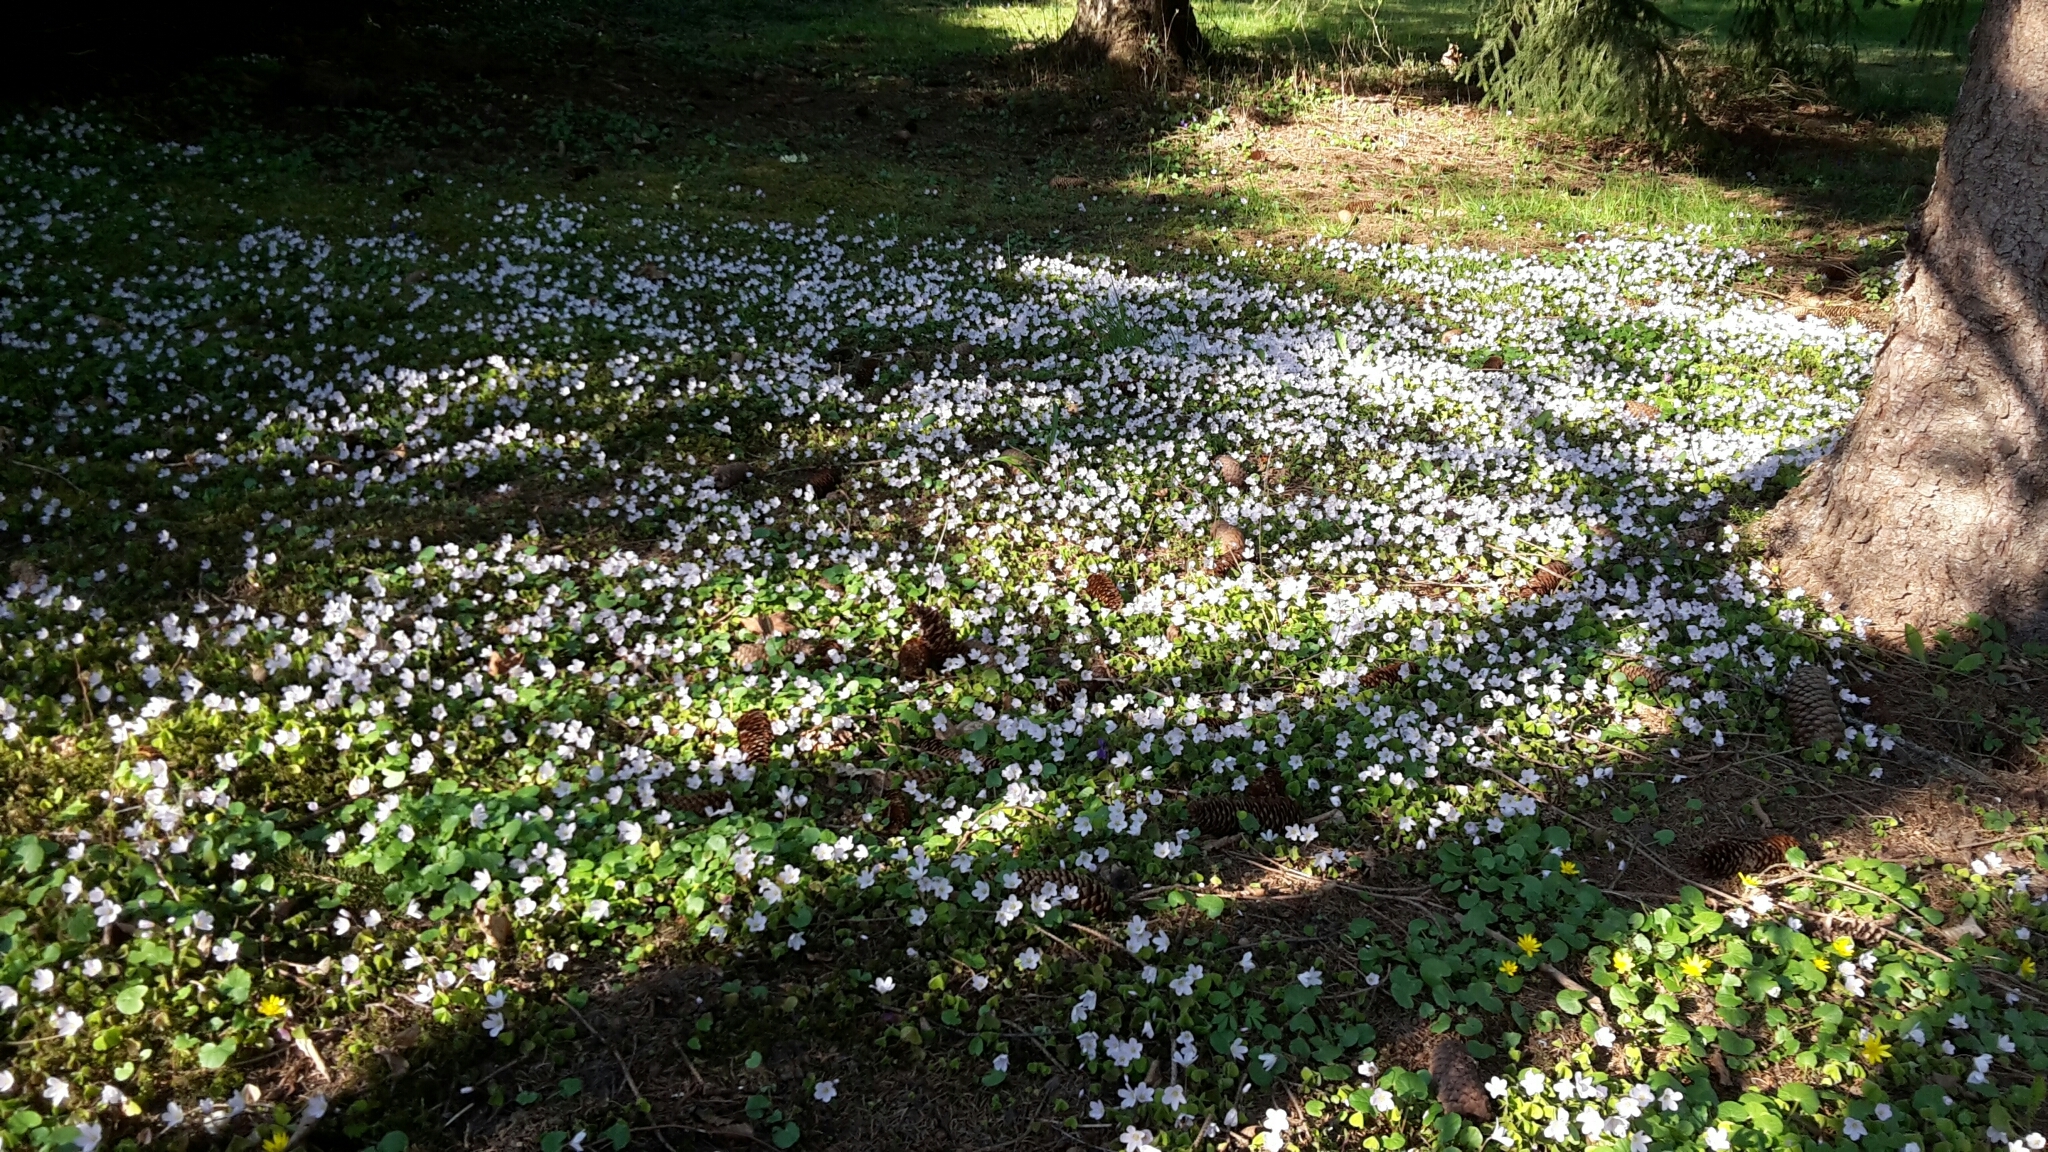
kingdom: Plantae
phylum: Tracheophyta
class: Magnoliopsida
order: Oxalidales
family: Oxalidaceae
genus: Oxalis
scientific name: Oxalis acetosella
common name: Wood-sorrel
